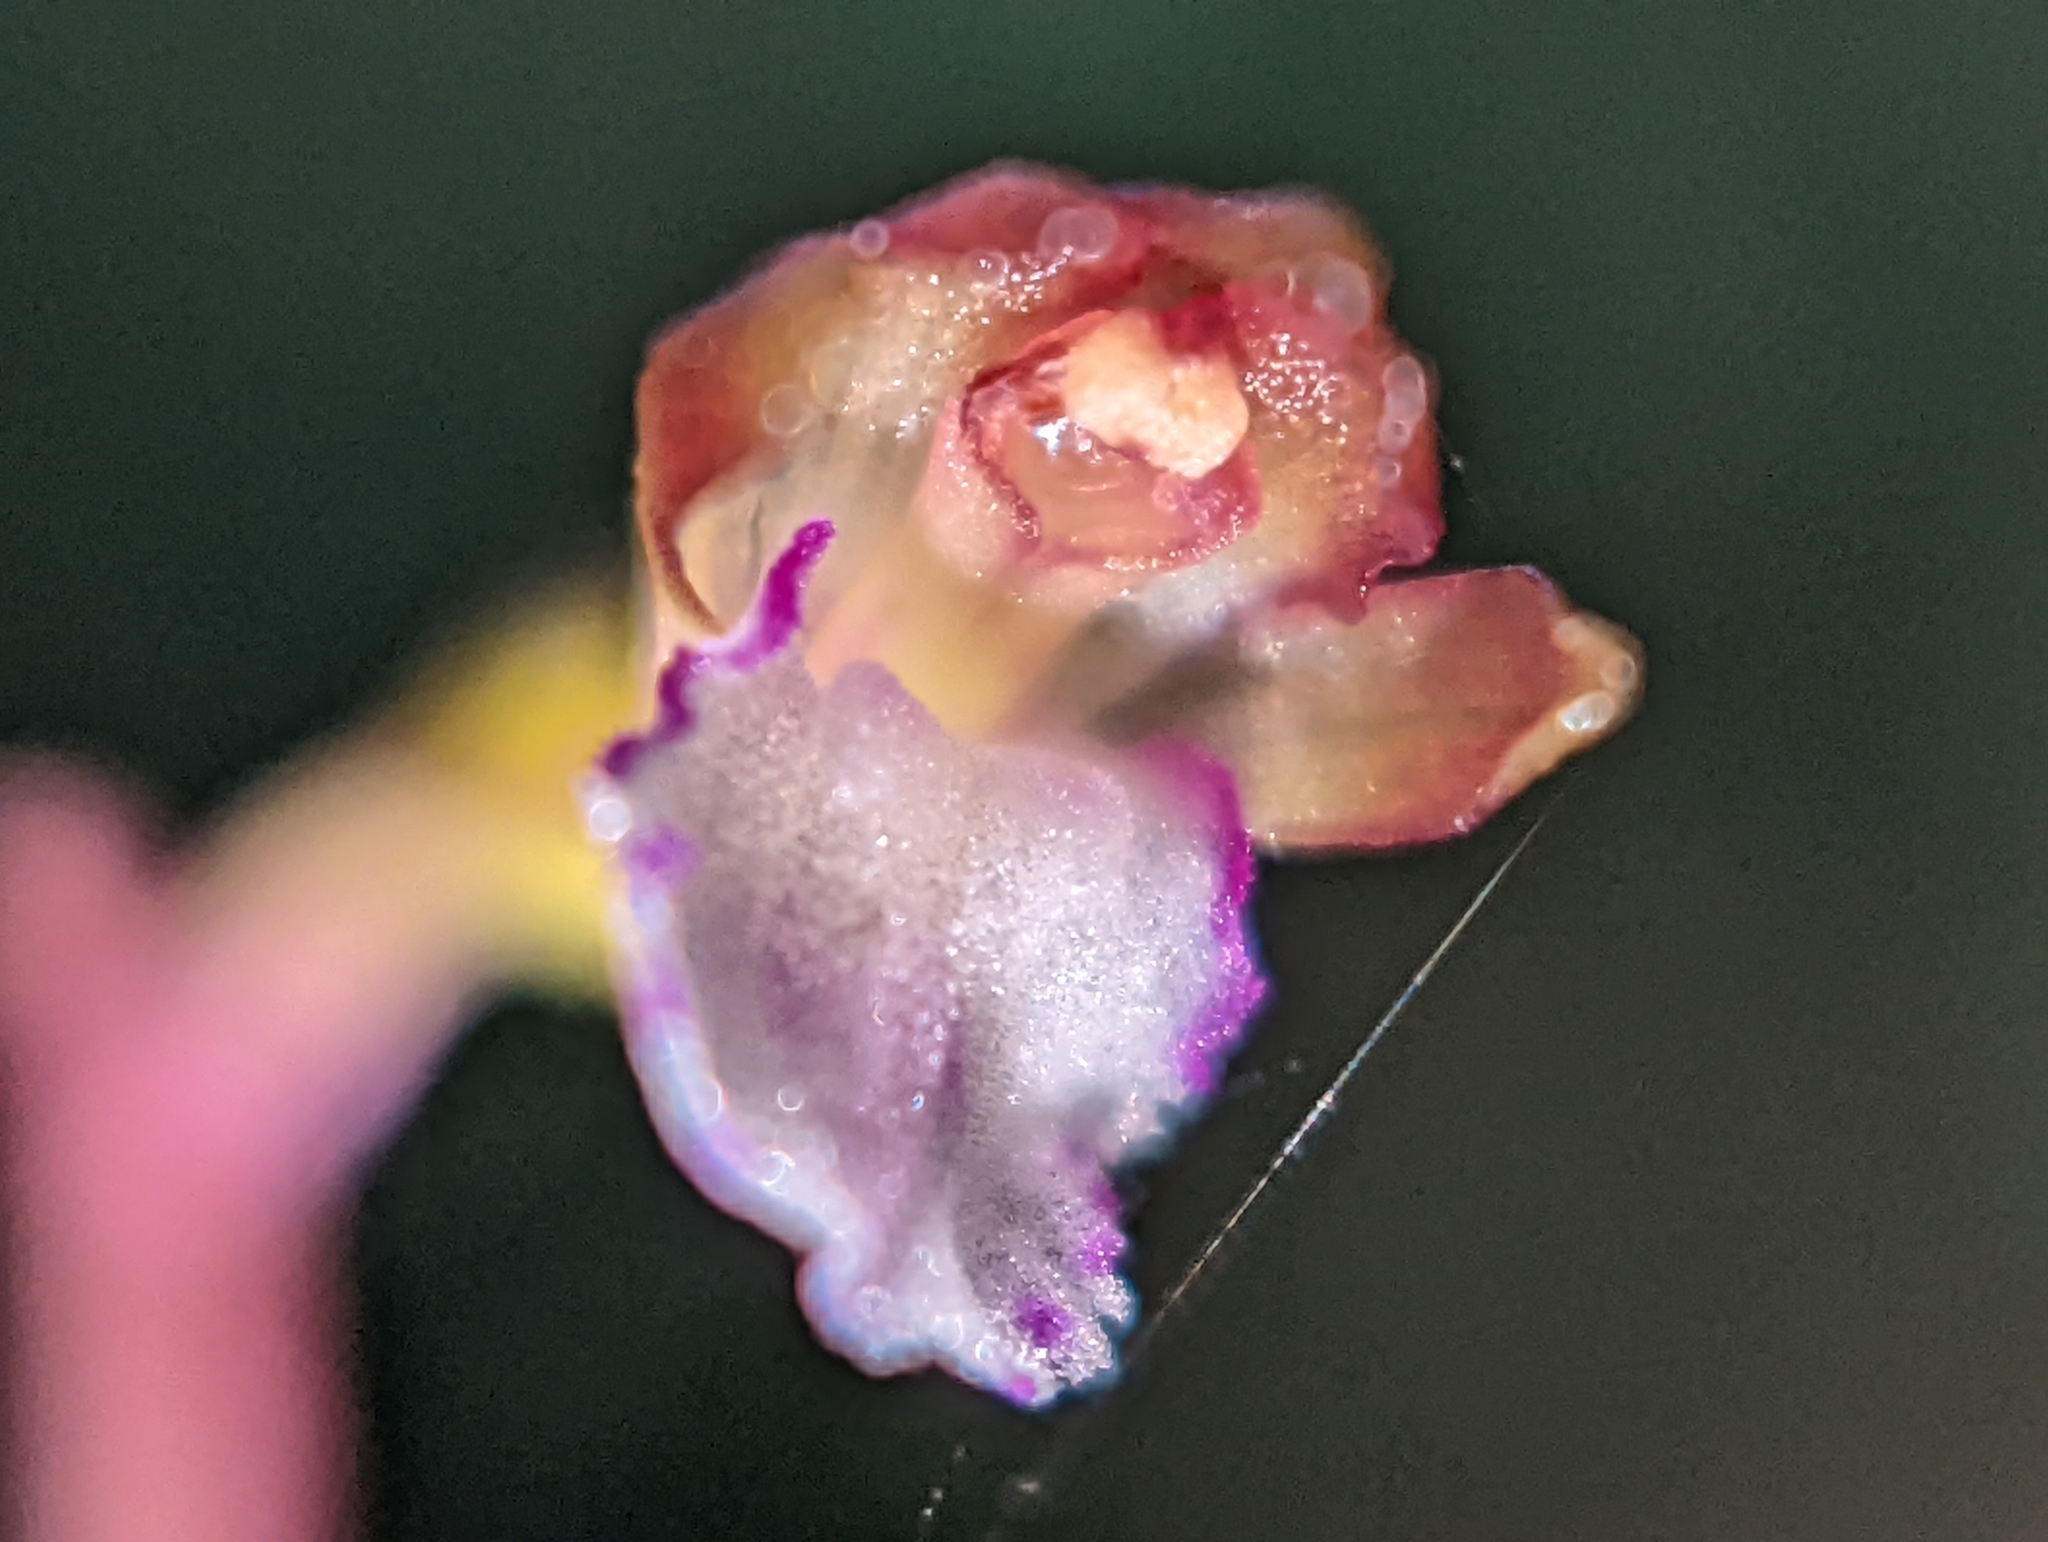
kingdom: Plantae
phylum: Tracheophyta
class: Liliopsida
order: Asparagales
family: Orchidaceae
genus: Corallorhiza
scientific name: Corallorhiza odontorhiza
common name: Autumn coralroot
